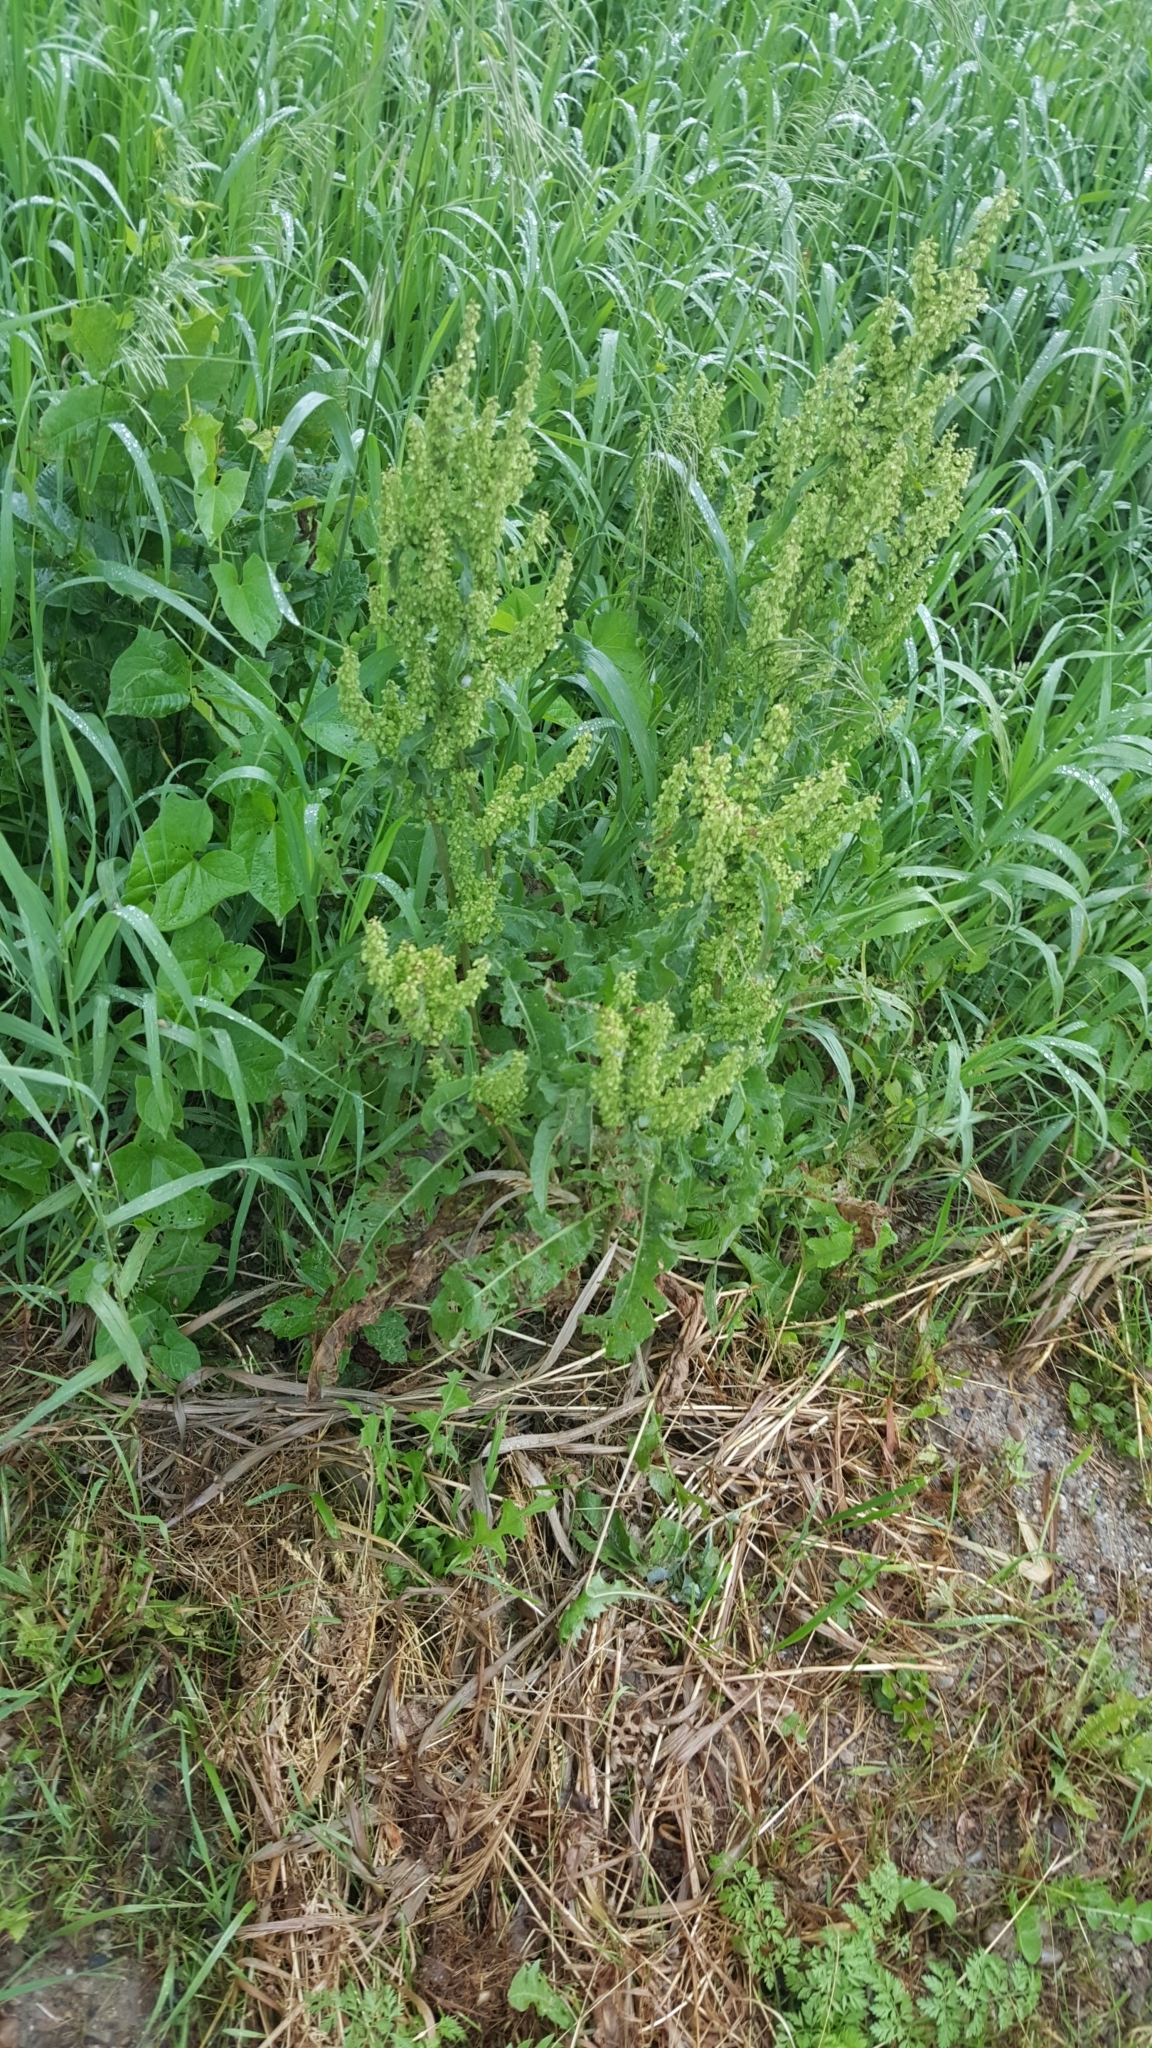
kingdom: Plantae
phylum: Tracheophyta
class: Magnoliopsida
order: Caryophyllales
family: Polygonaceae
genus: Rumex
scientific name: Rumex crispus
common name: Curled dock
